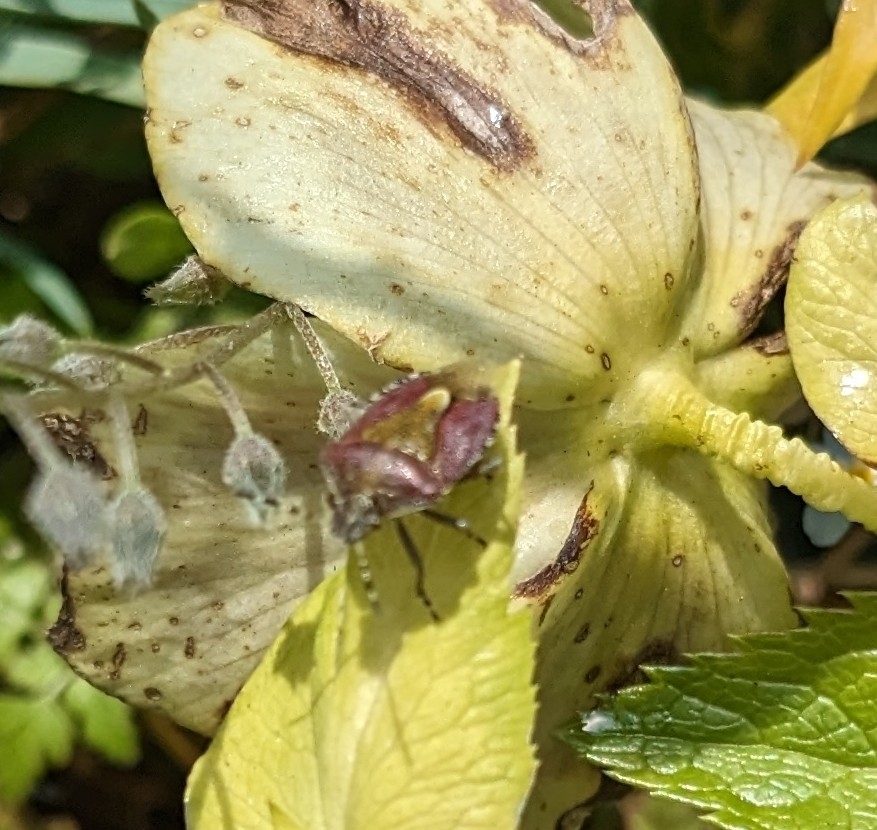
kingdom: Animalia
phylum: Arthropoda
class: Insecta
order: Hemiptera
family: Pentatomidae
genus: Dolycoris
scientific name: Dolycoris baccarum
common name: Sloe bug
